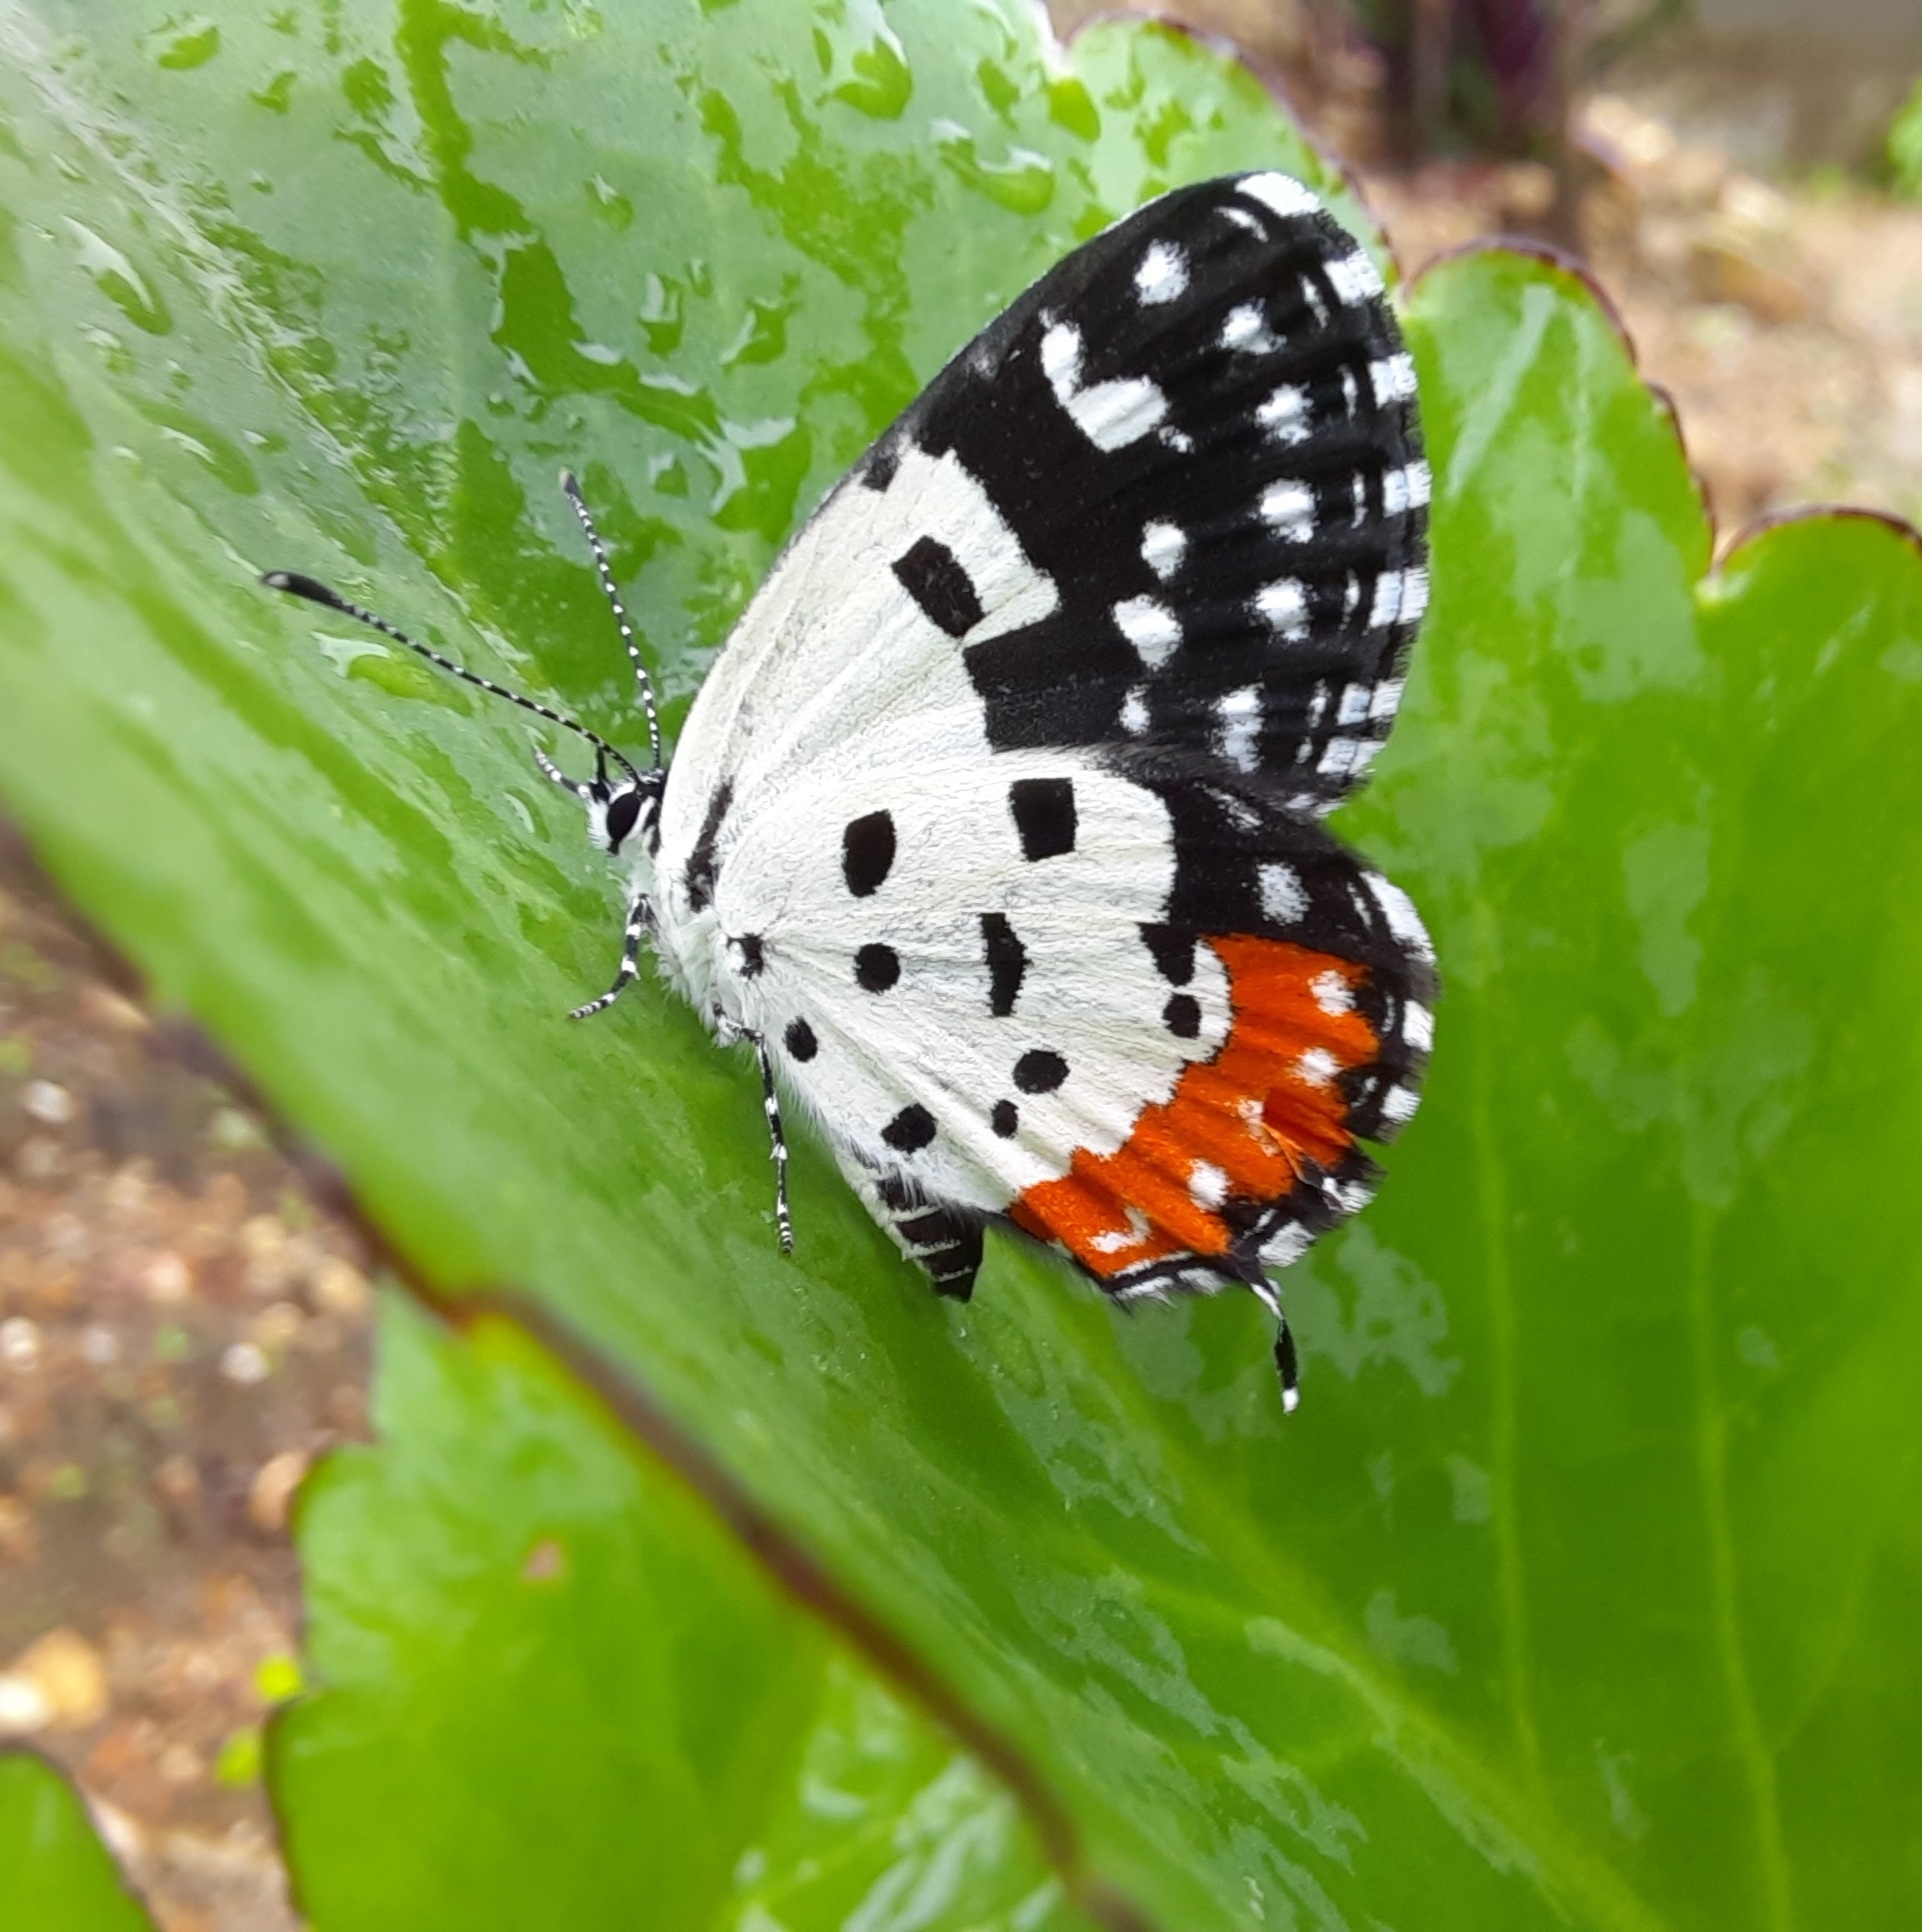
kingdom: Animalia
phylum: Arthropoda
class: Insecta
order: Lepidoptera
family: Lycaenidae
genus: Talicada
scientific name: Talicada nyseus
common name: Red pierrot
